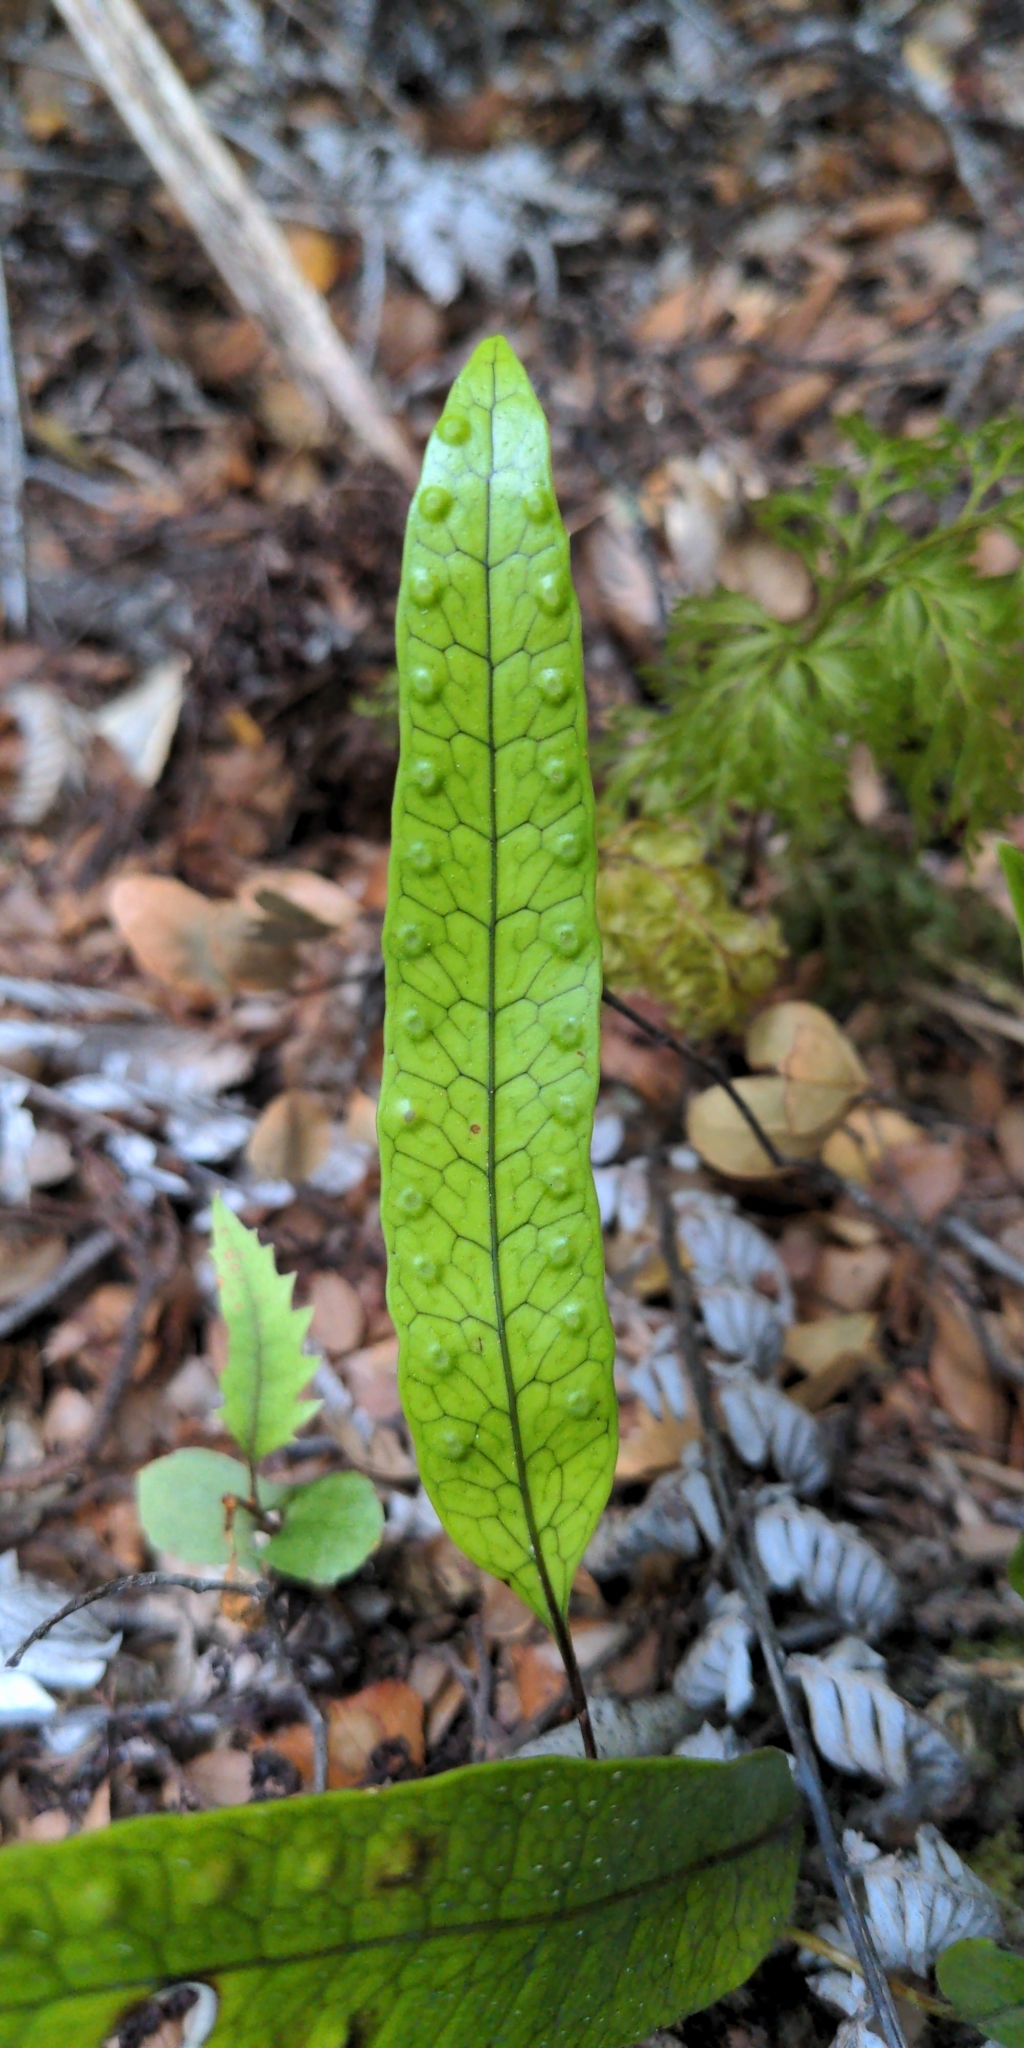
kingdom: Plantae
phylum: Tracheophyta
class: Polypodiopsida
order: Polypodiales
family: Polypodiaceae
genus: Lecanopteris
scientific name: Lecanopteris pustulata
